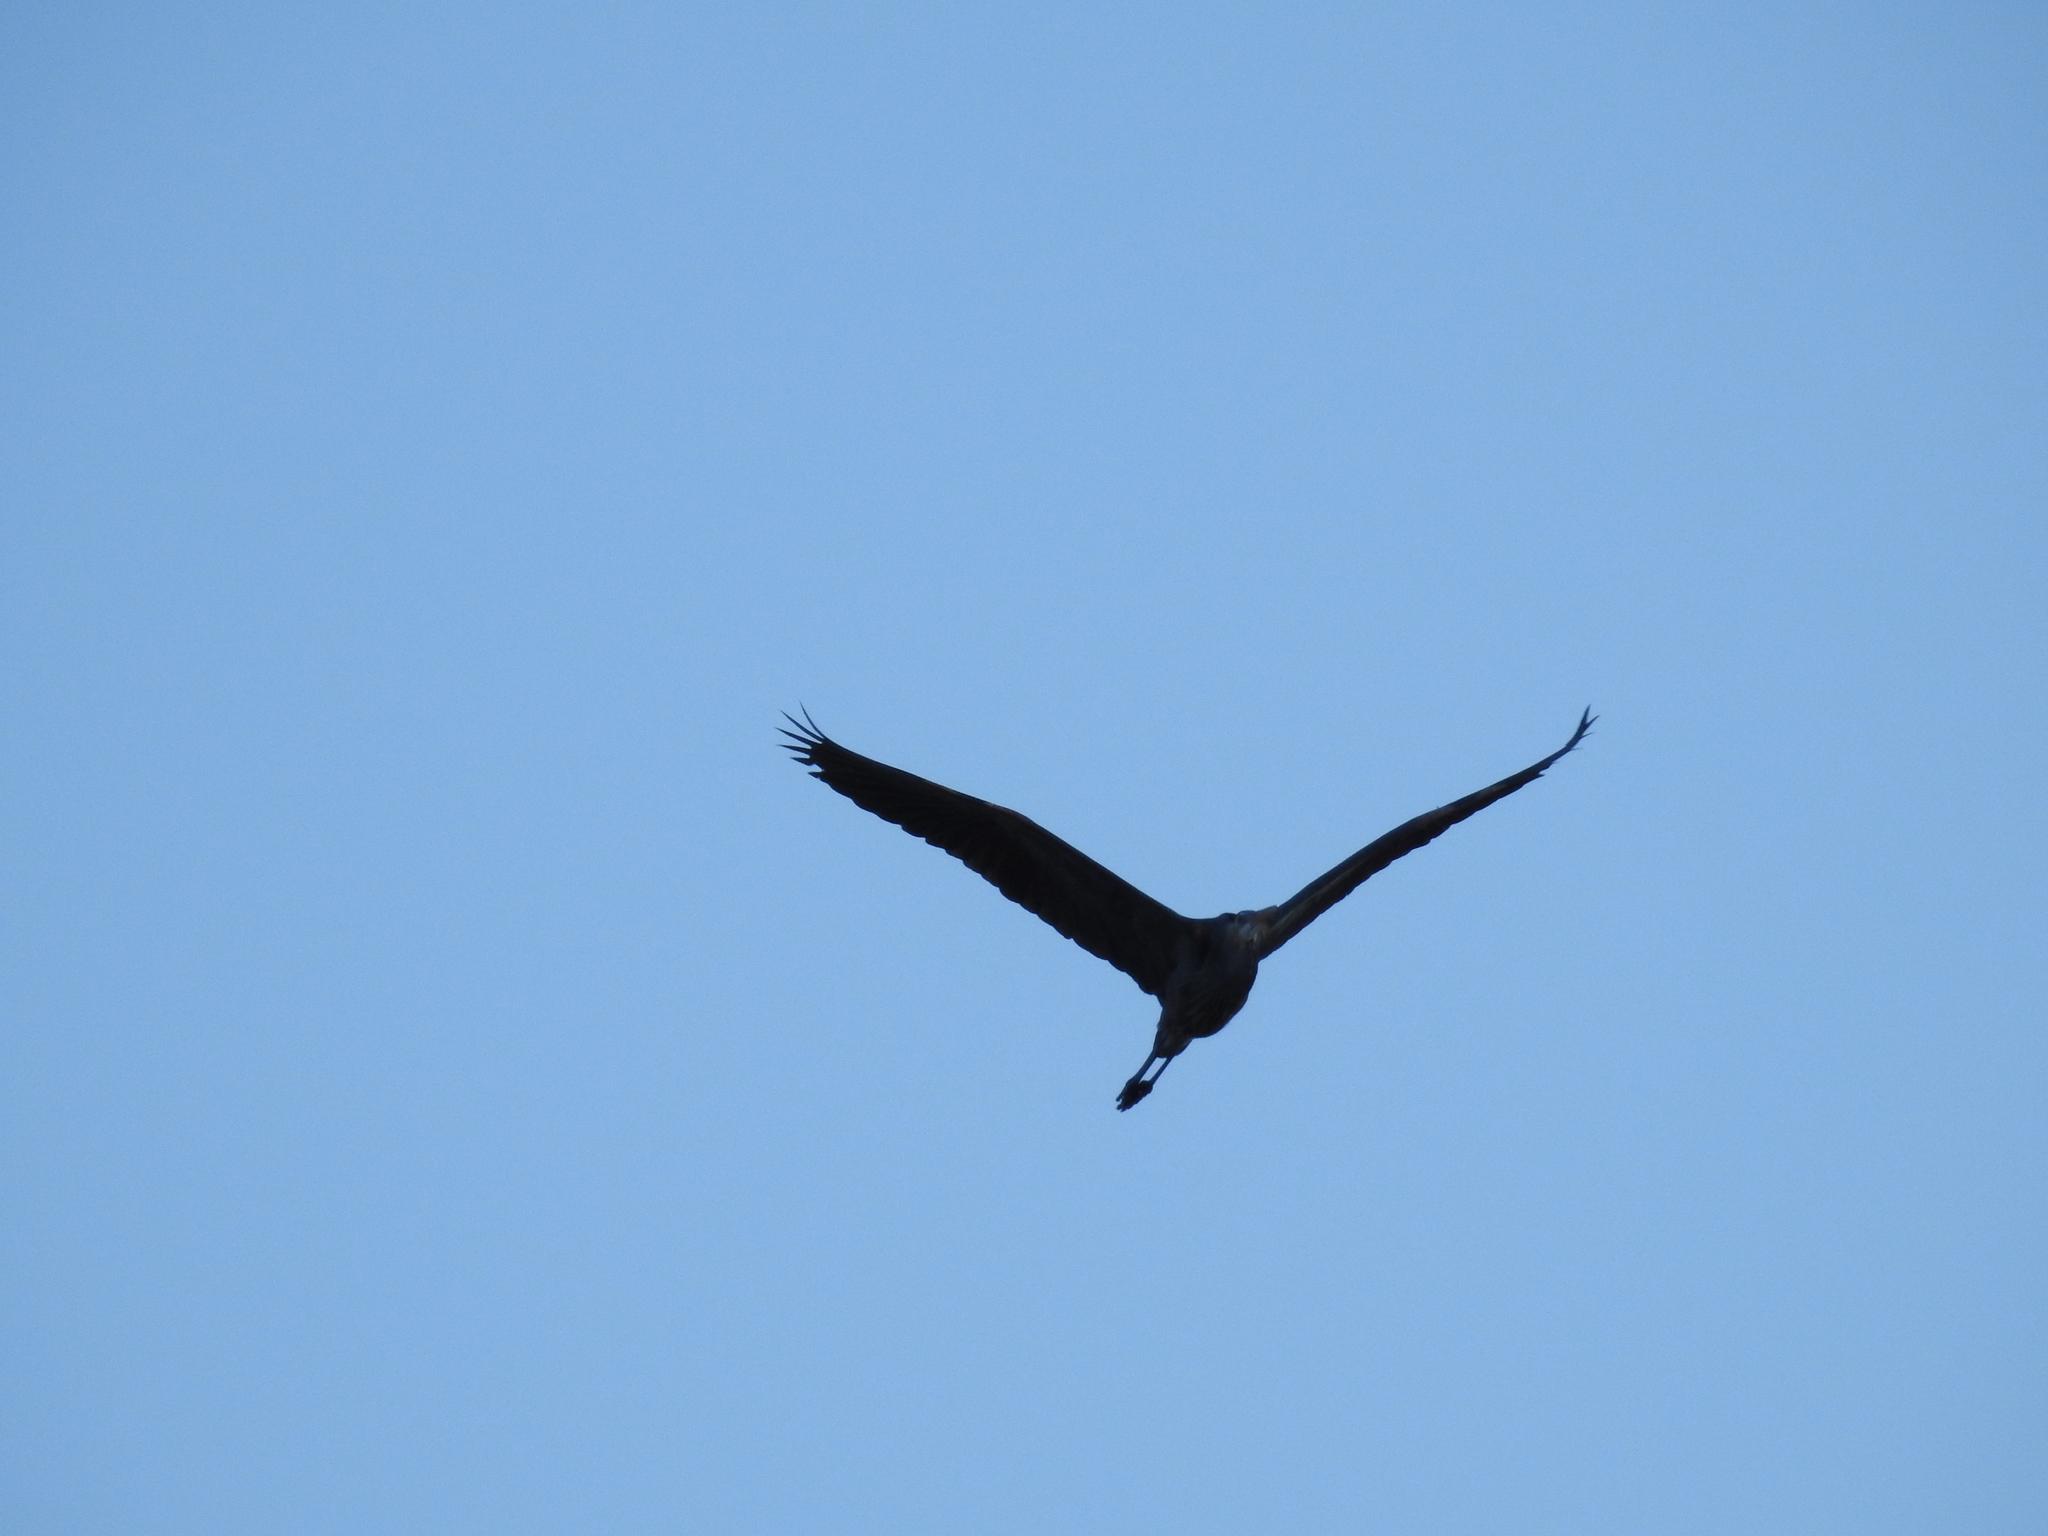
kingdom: Animalia
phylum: Chordata
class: Aves
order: Pelecaniformes
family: Ardeidae
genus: Ardea
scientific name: Ardea herodias
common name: Great blue heron
